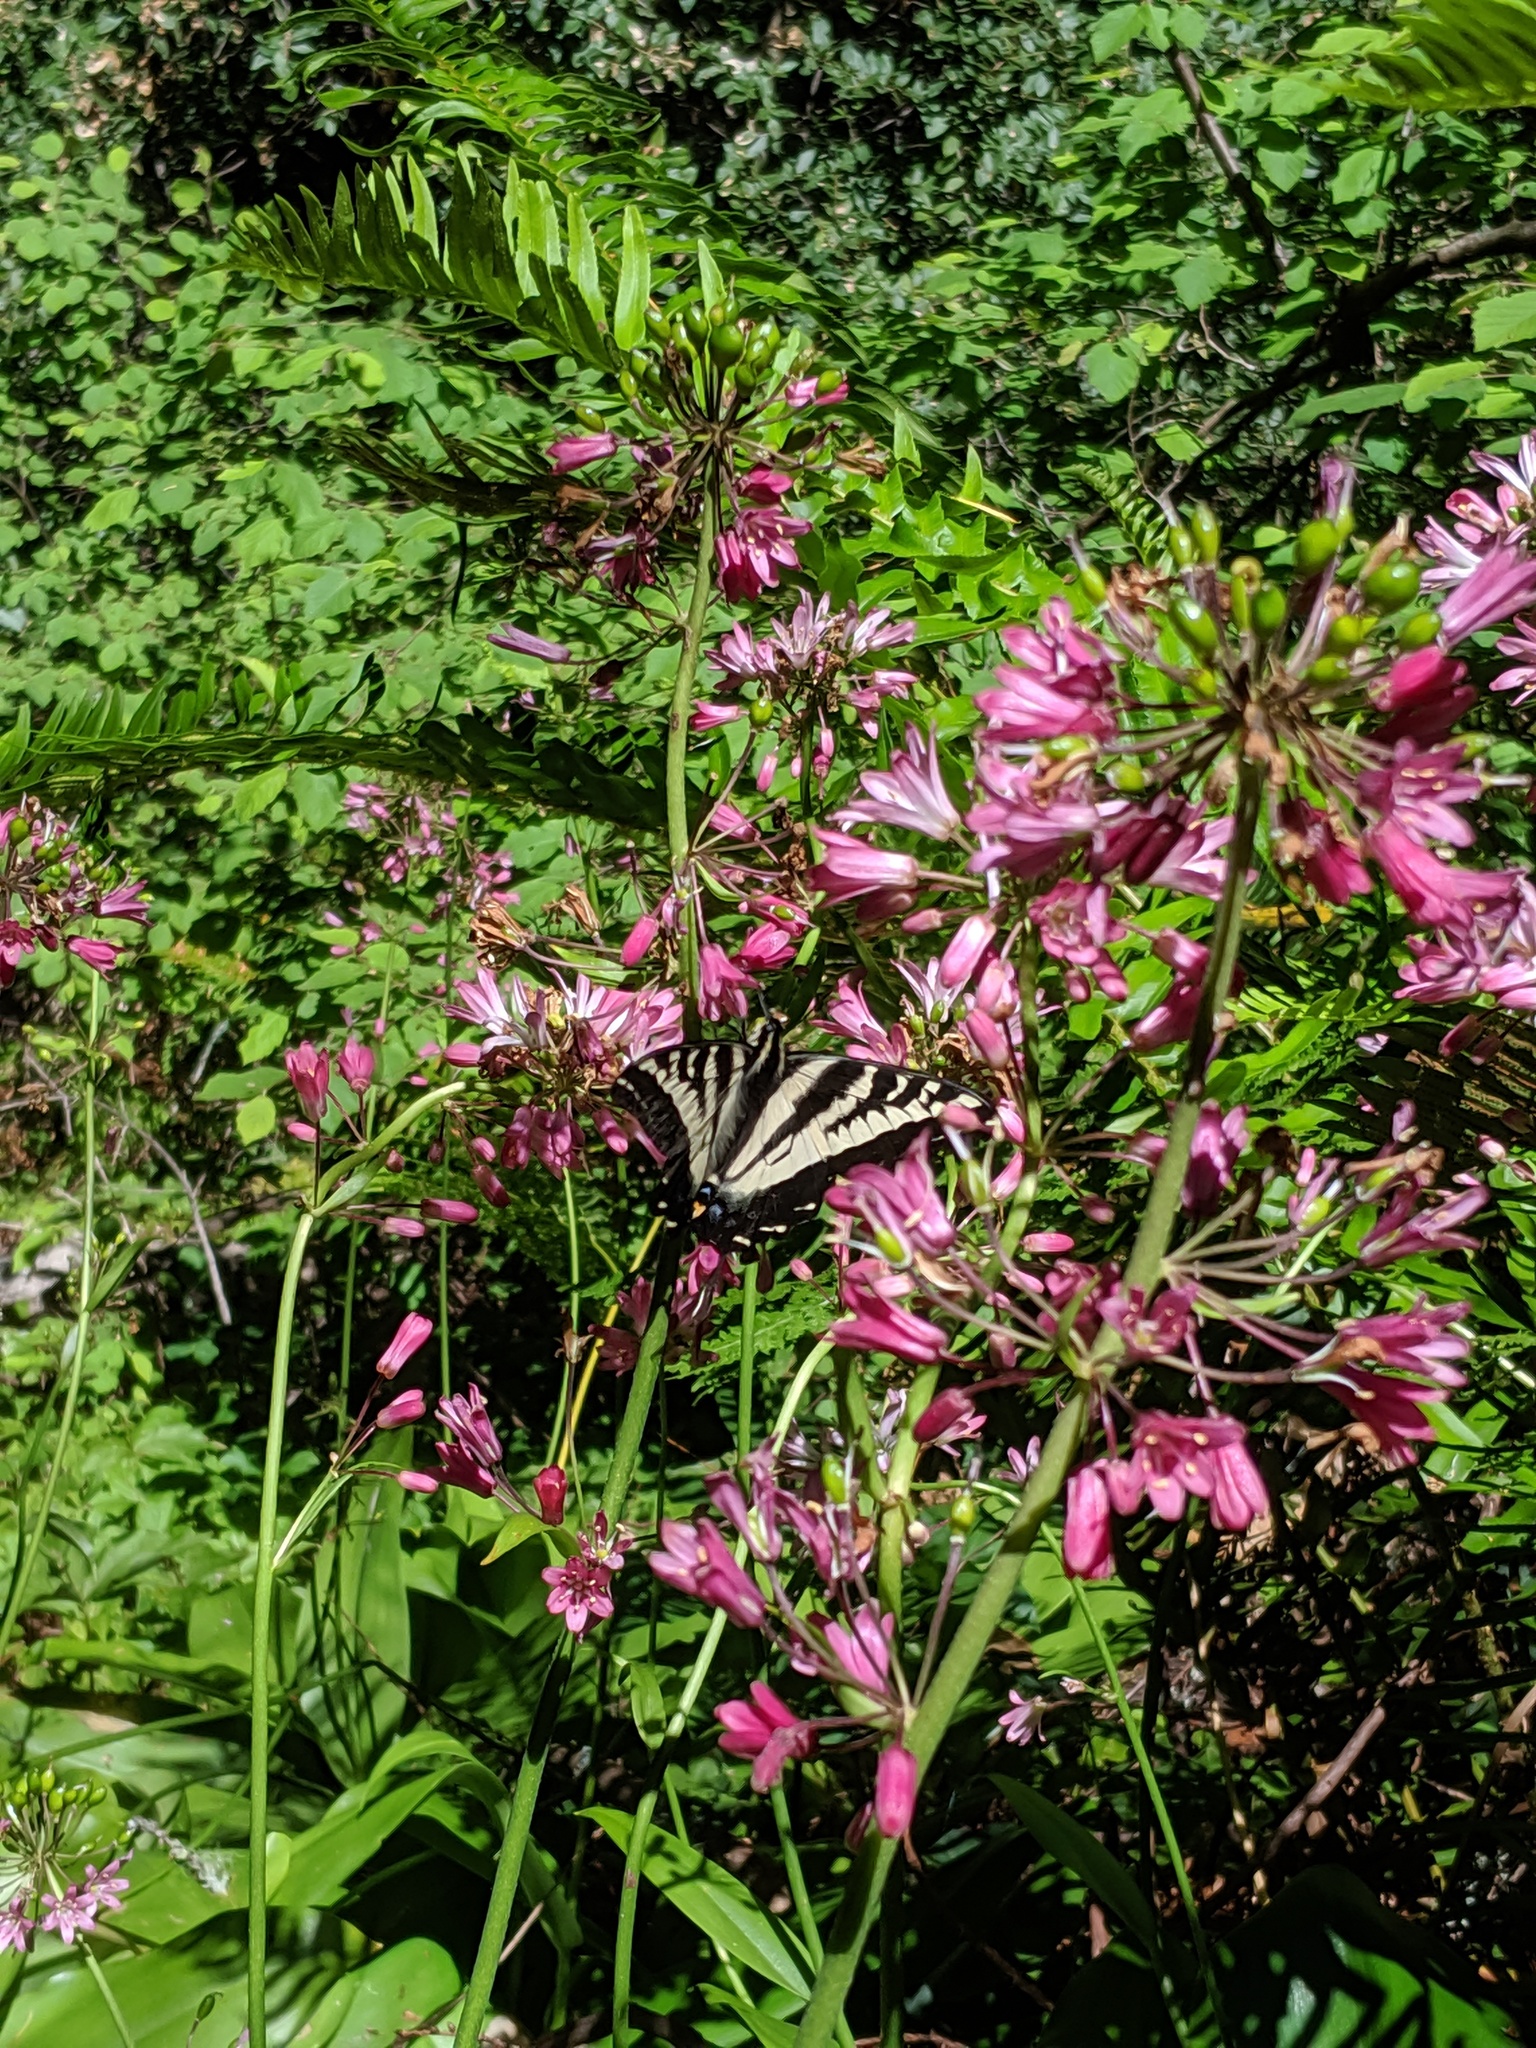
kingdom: Animalia
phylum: Arthropoda
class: Insecta
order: Lepidoptera
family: Papilionidae
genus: Papilio
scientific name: Papilio eurymedon
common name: Pale tiger swallowtail
